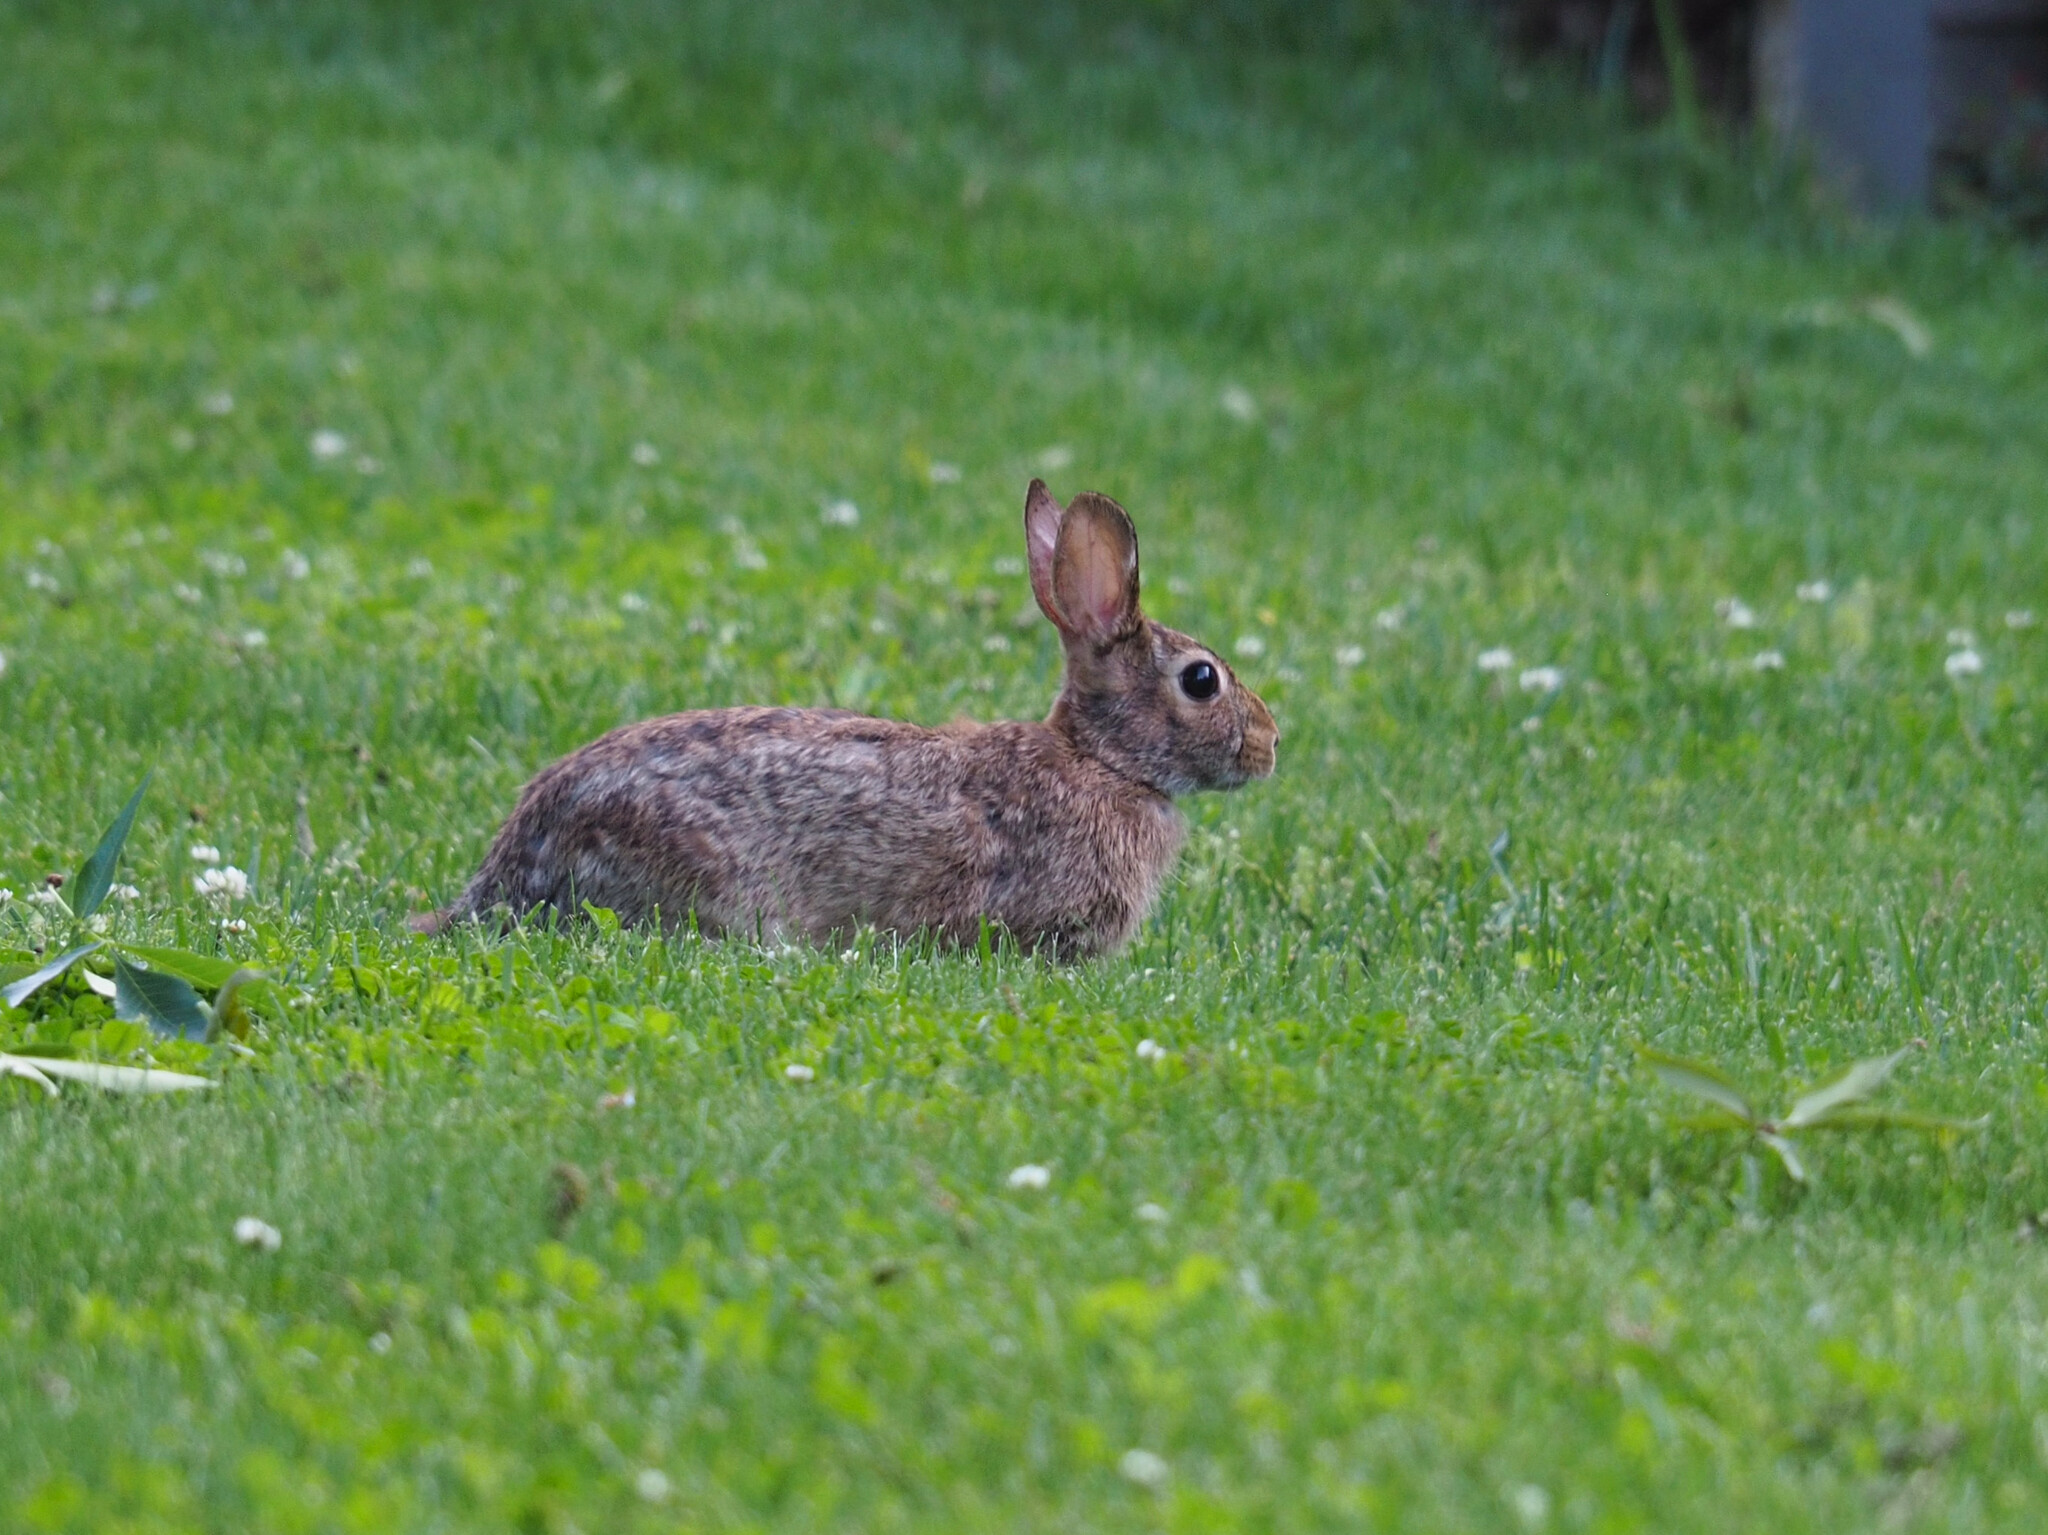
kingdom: Animalia
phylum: Chordata
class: Mammalia
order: Lagomorpha
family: Leporidae
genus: Sylvilagus
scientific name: Sylvilagus floridanus
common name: Eastern cottontail
